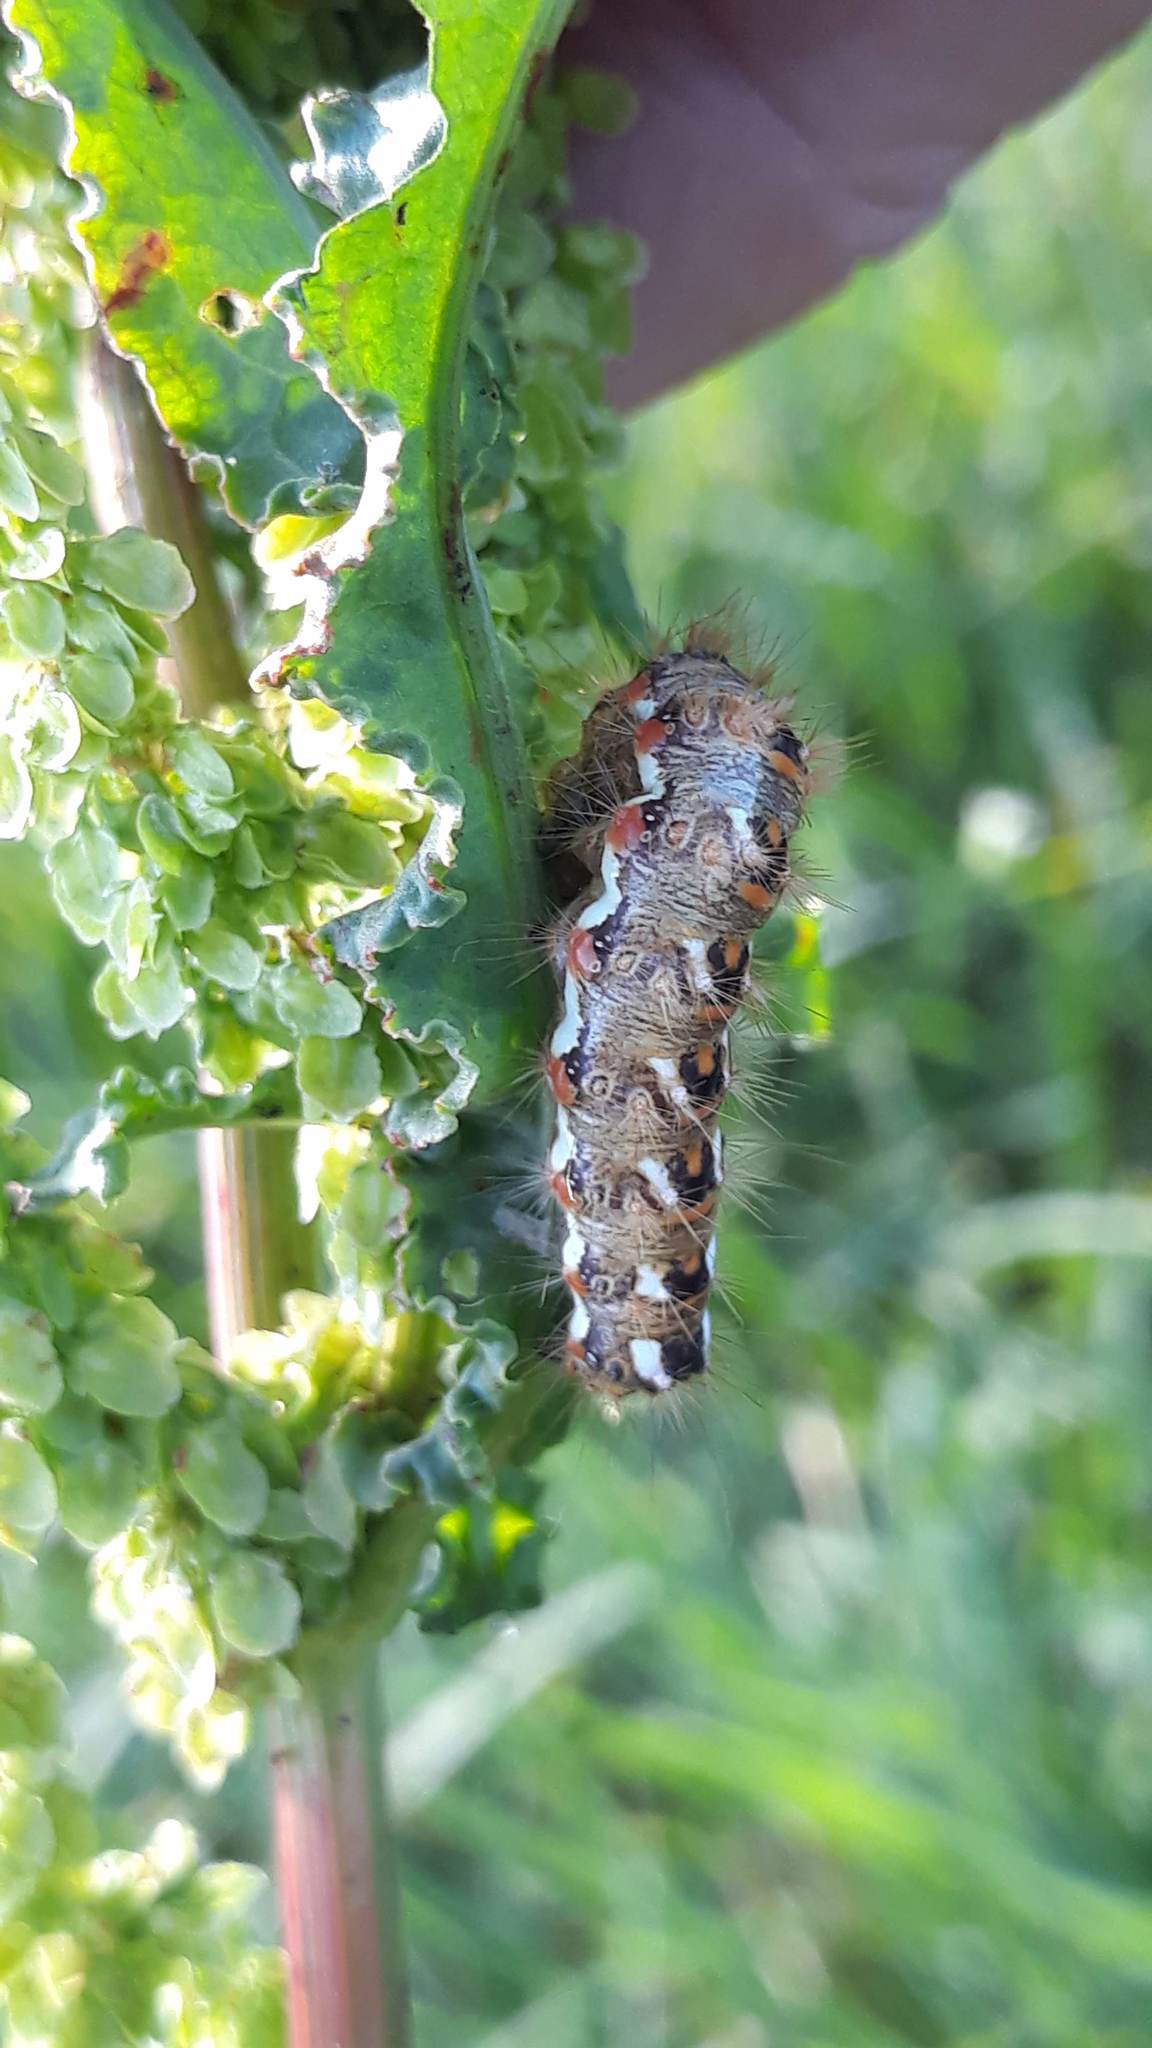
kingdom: Animalia
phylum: Arthropoda
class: Insecta
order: Lepidoptera
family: Noctuidae
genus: Acronicta
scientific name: Acronicta rumicis
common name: Knot grass
